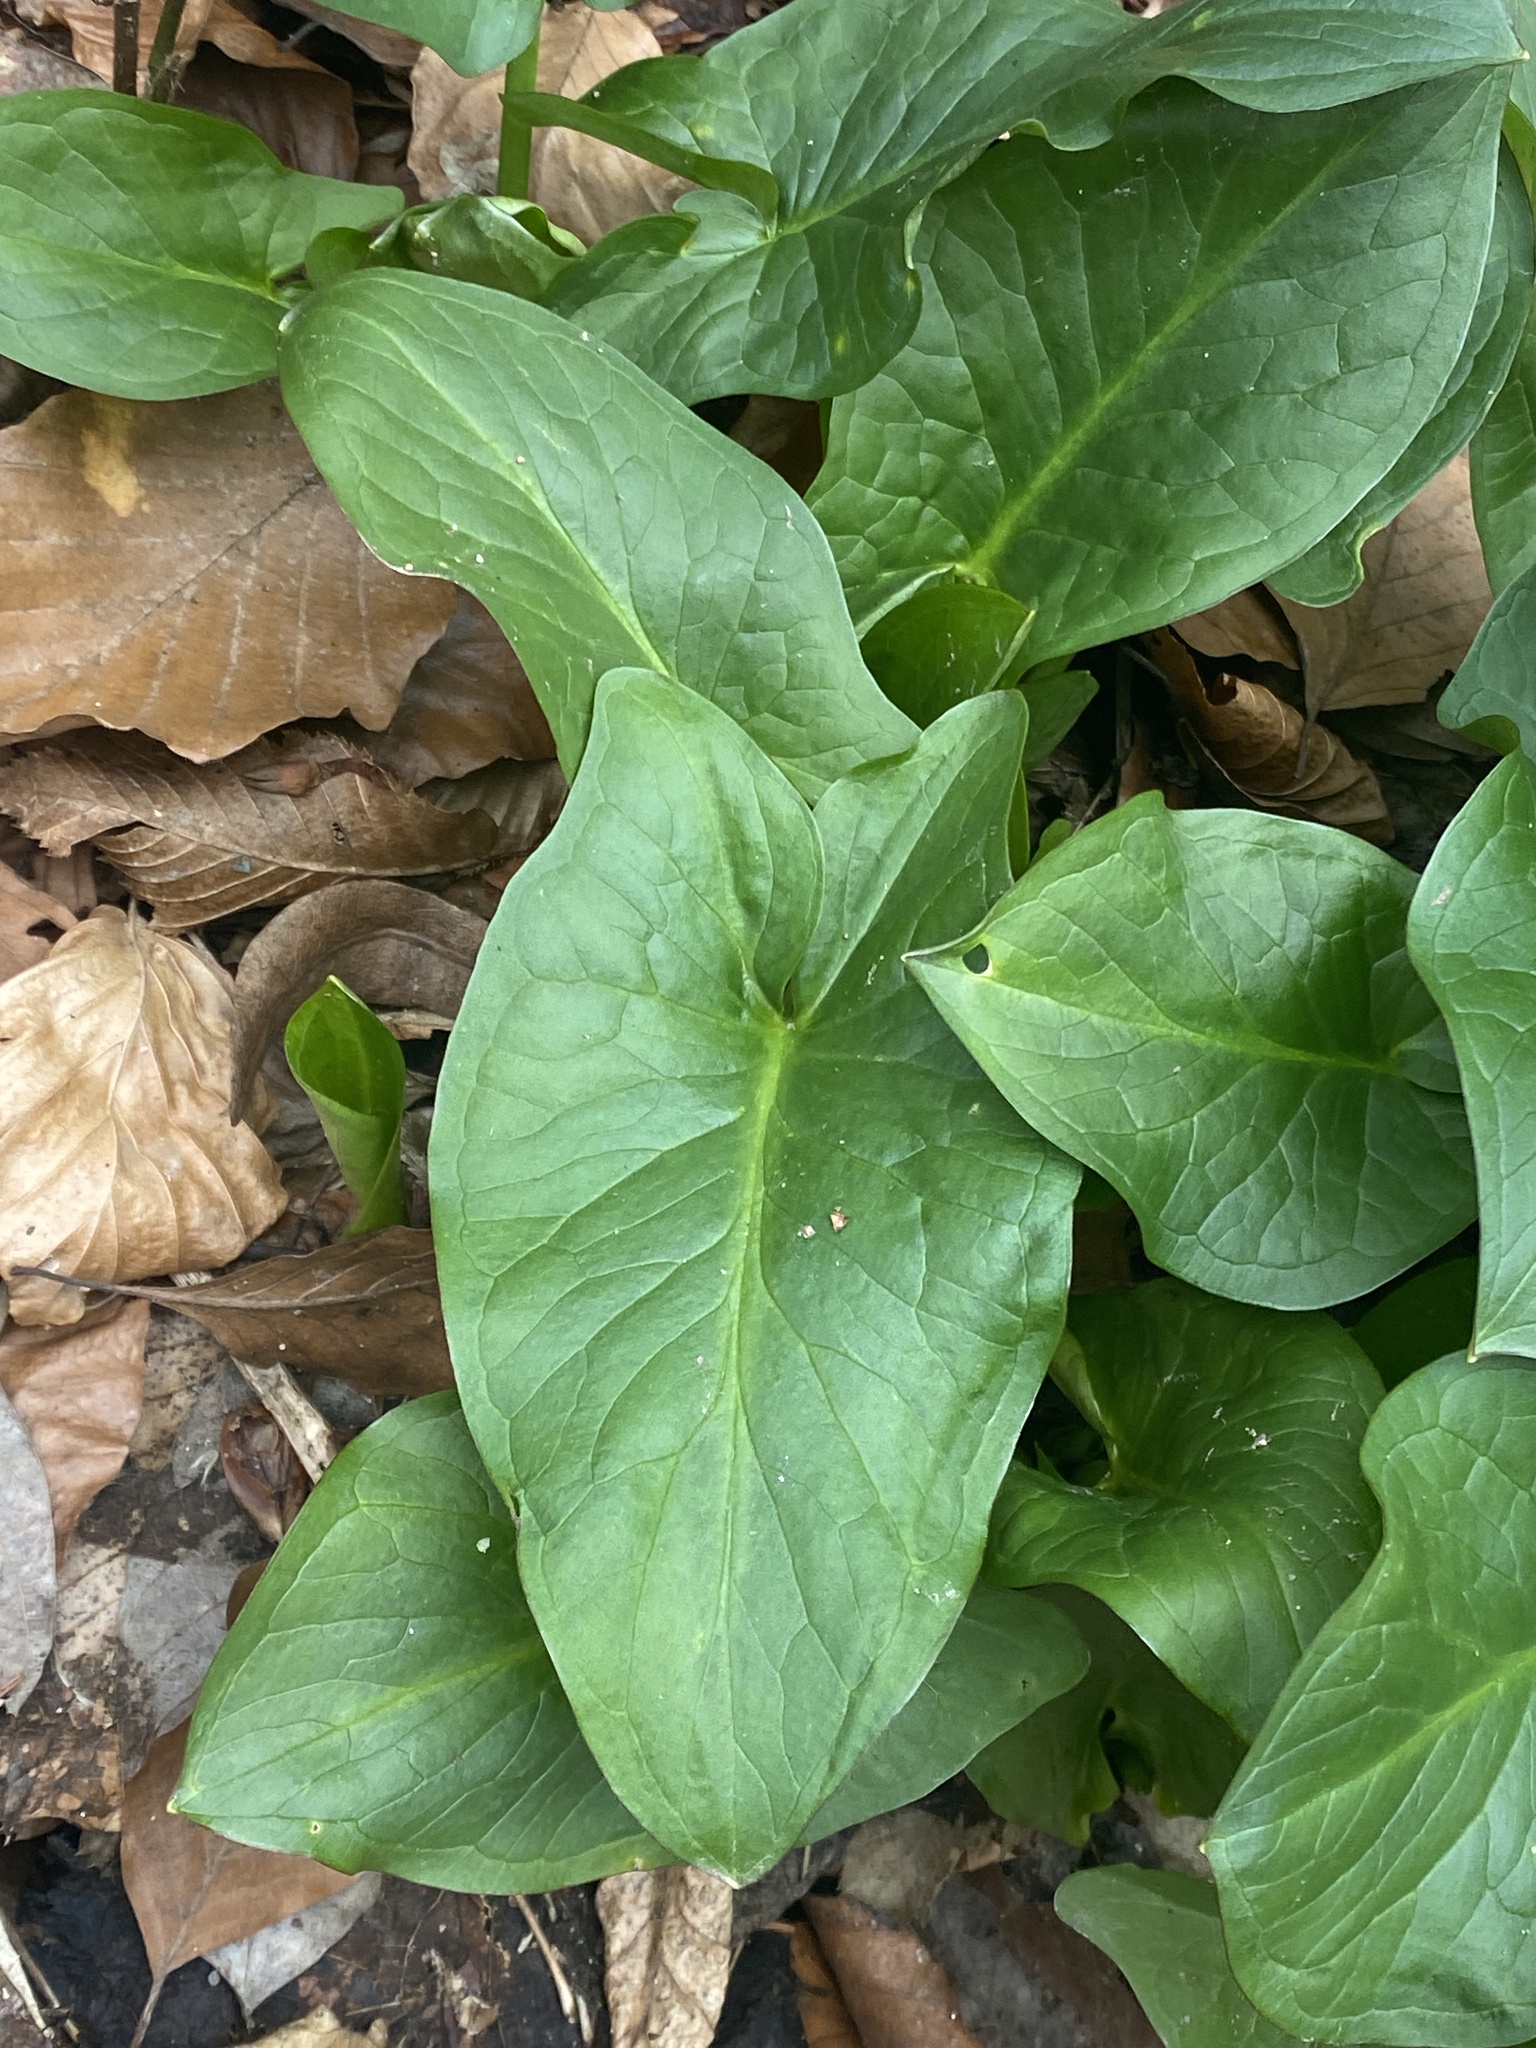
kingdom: Plantae
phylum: Tracheophyta
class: Liliopsida
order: Alismatales
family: Araceae
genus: Arum
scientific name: Arum maculatum
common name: Lords-and-ladies
